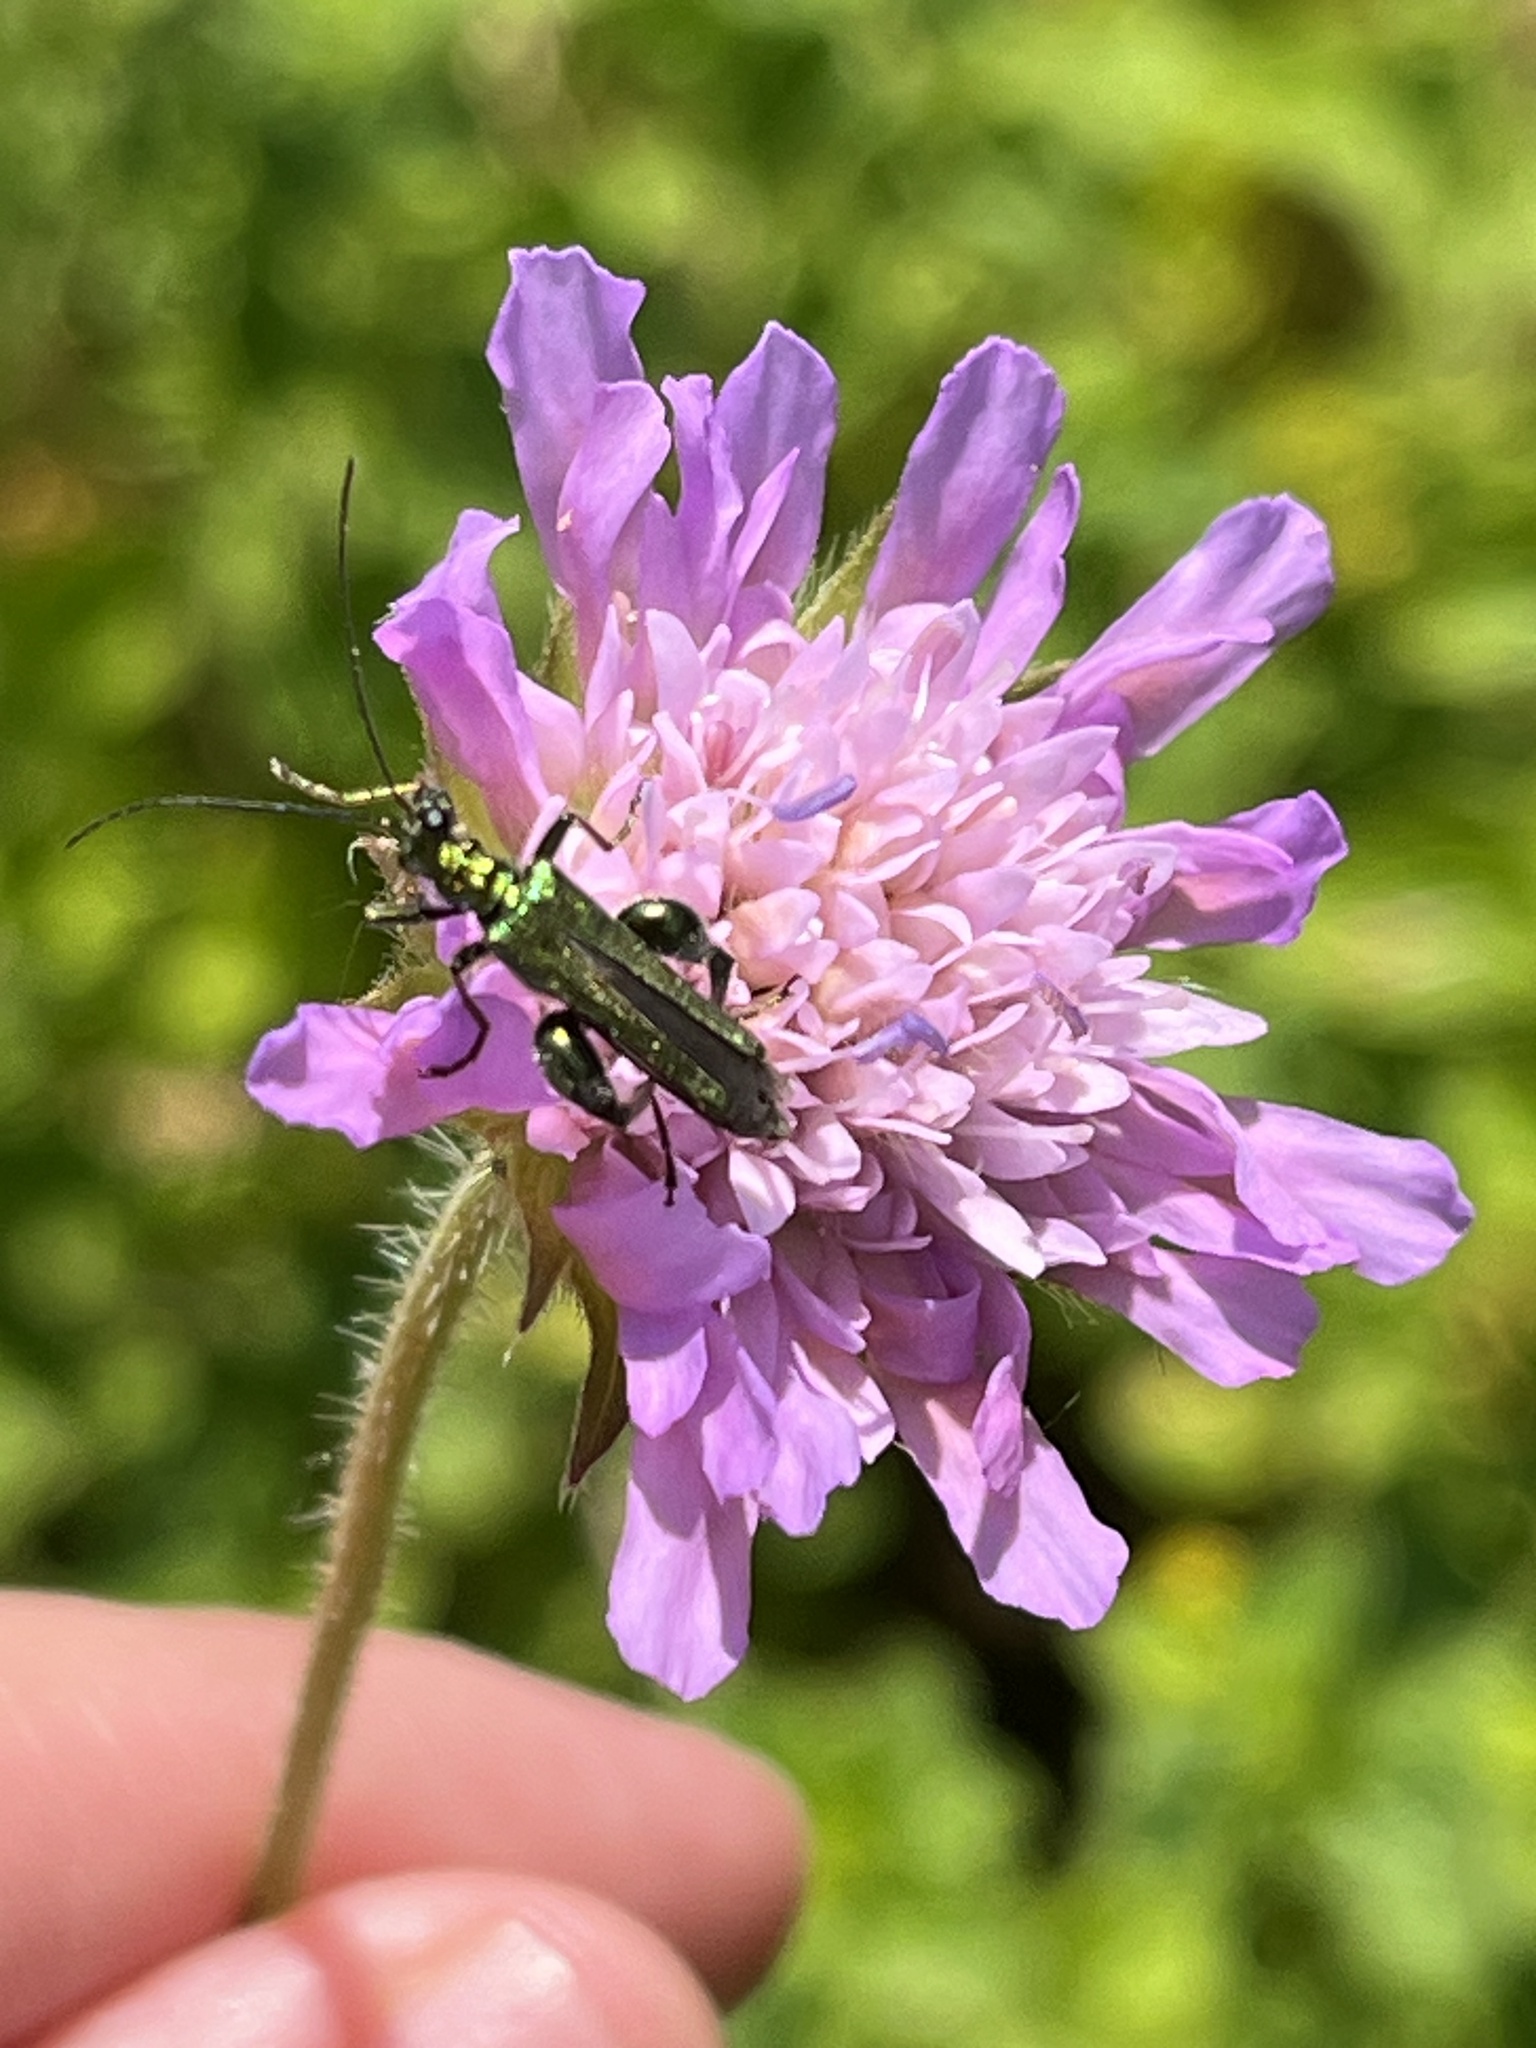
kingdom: Animalia
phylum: Arthropoda
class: Insecta
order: Coleoptera
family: Oedemeridae
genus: Oedemera
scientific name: Oedemera nobilis
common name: Swollen-thighed beetle
